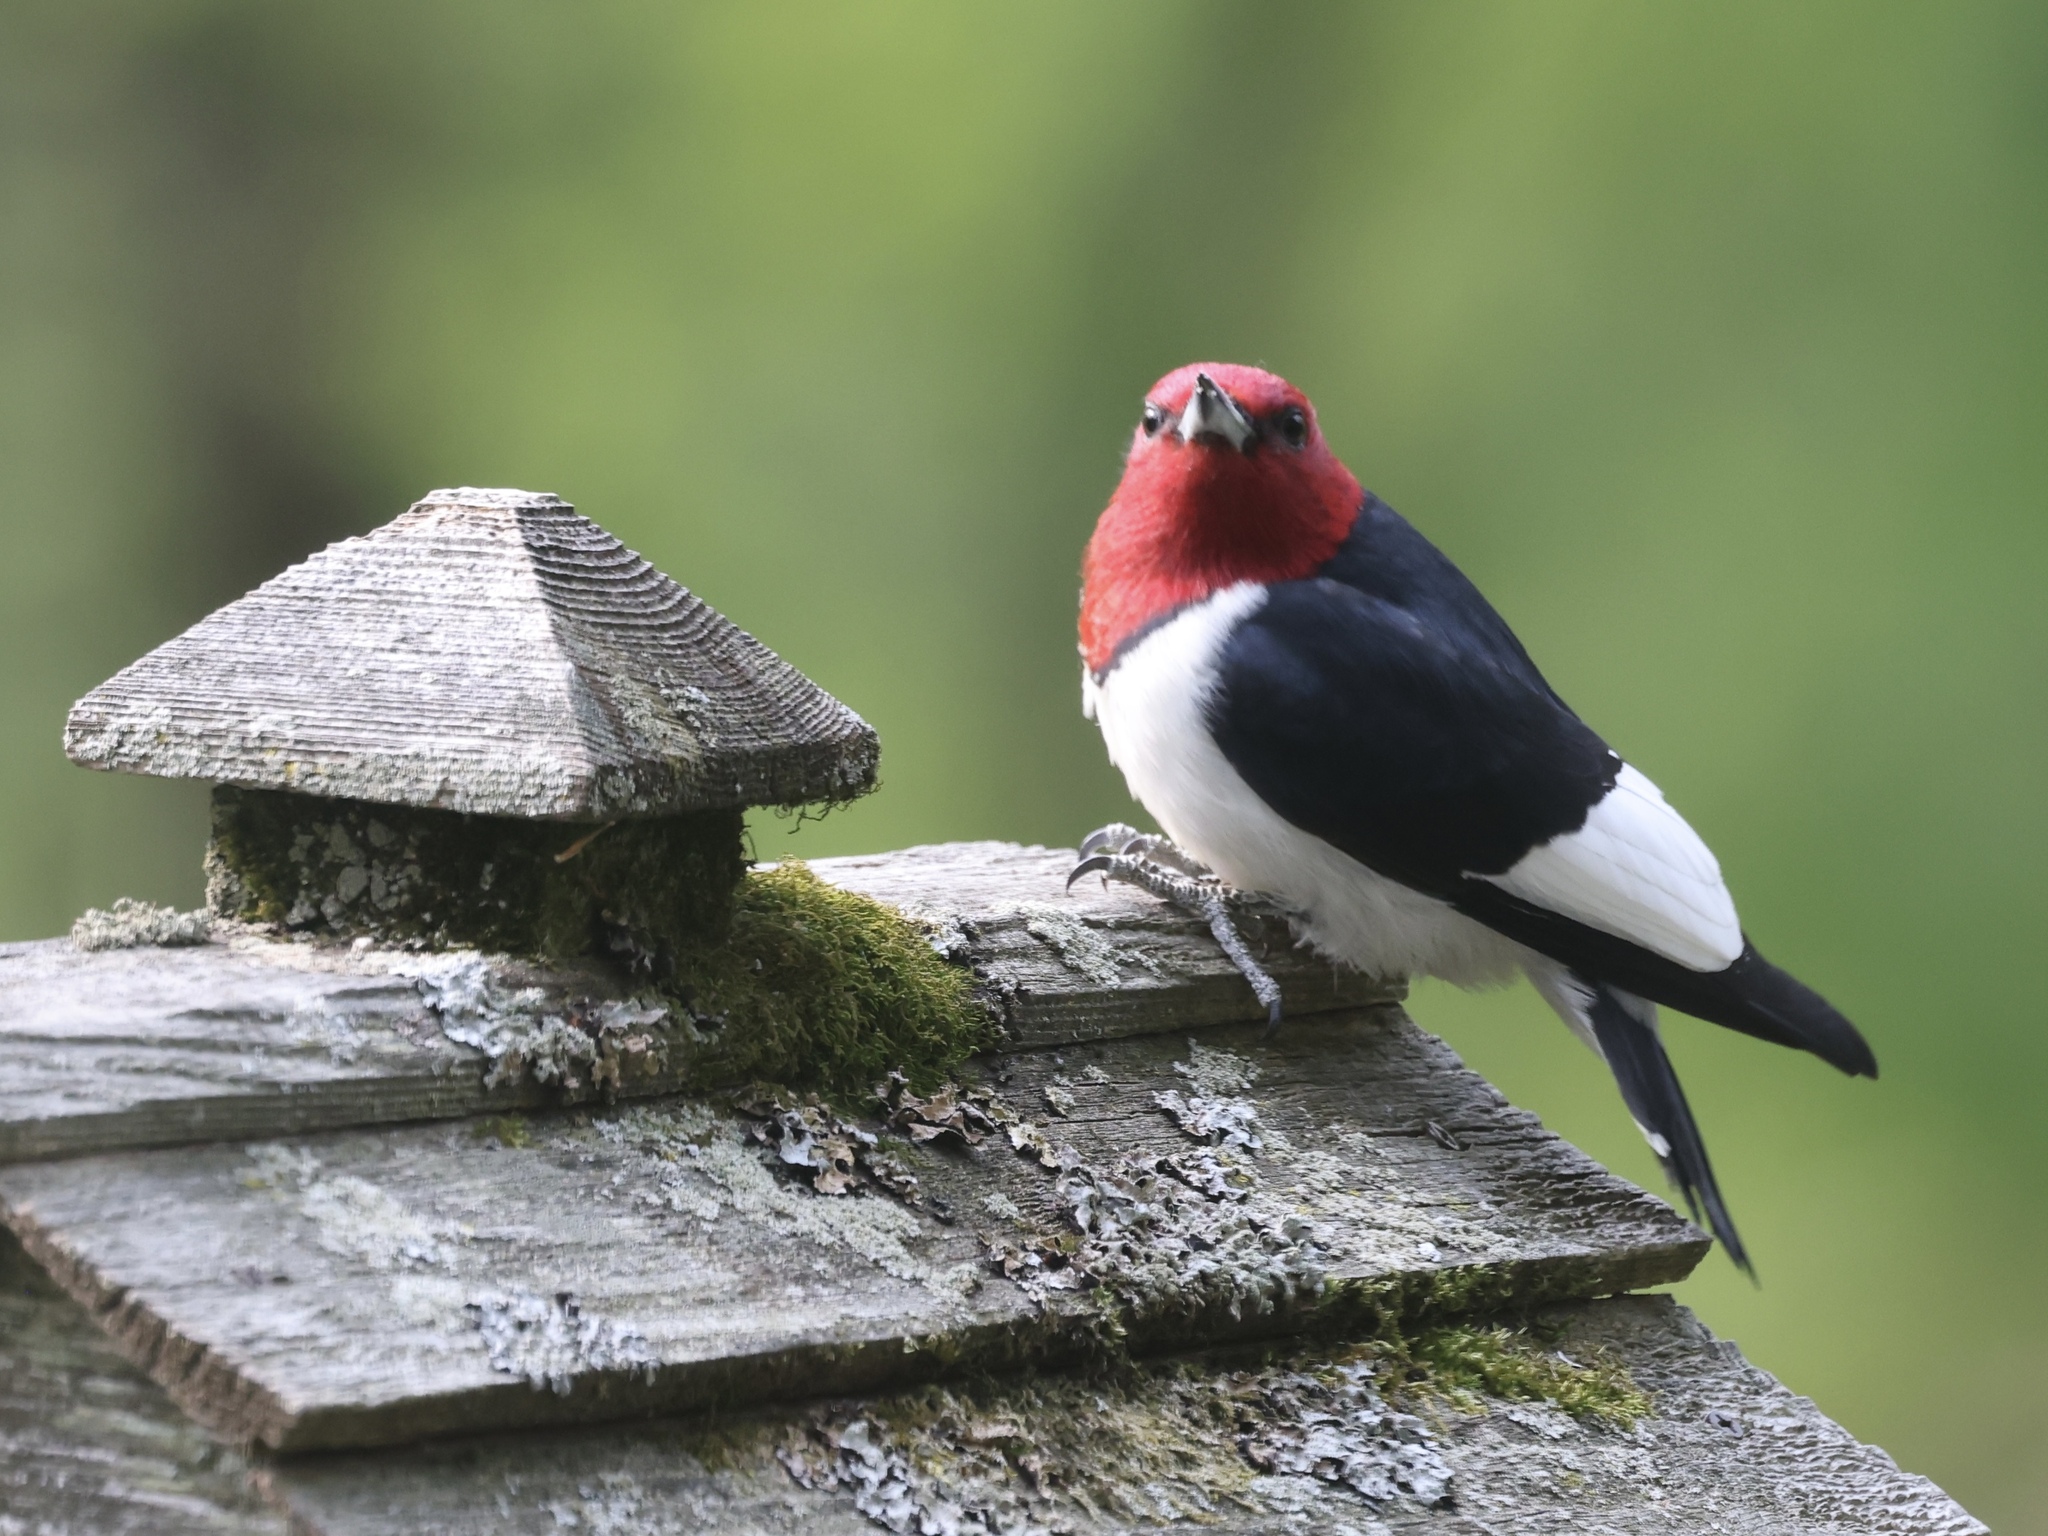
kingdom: Animalia
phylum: Chordata
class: Aves
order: Piciformes
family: Picidae
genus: Melanerpes
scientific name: Melanerpes erythrocephalus
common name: Red-headed woodpecker
